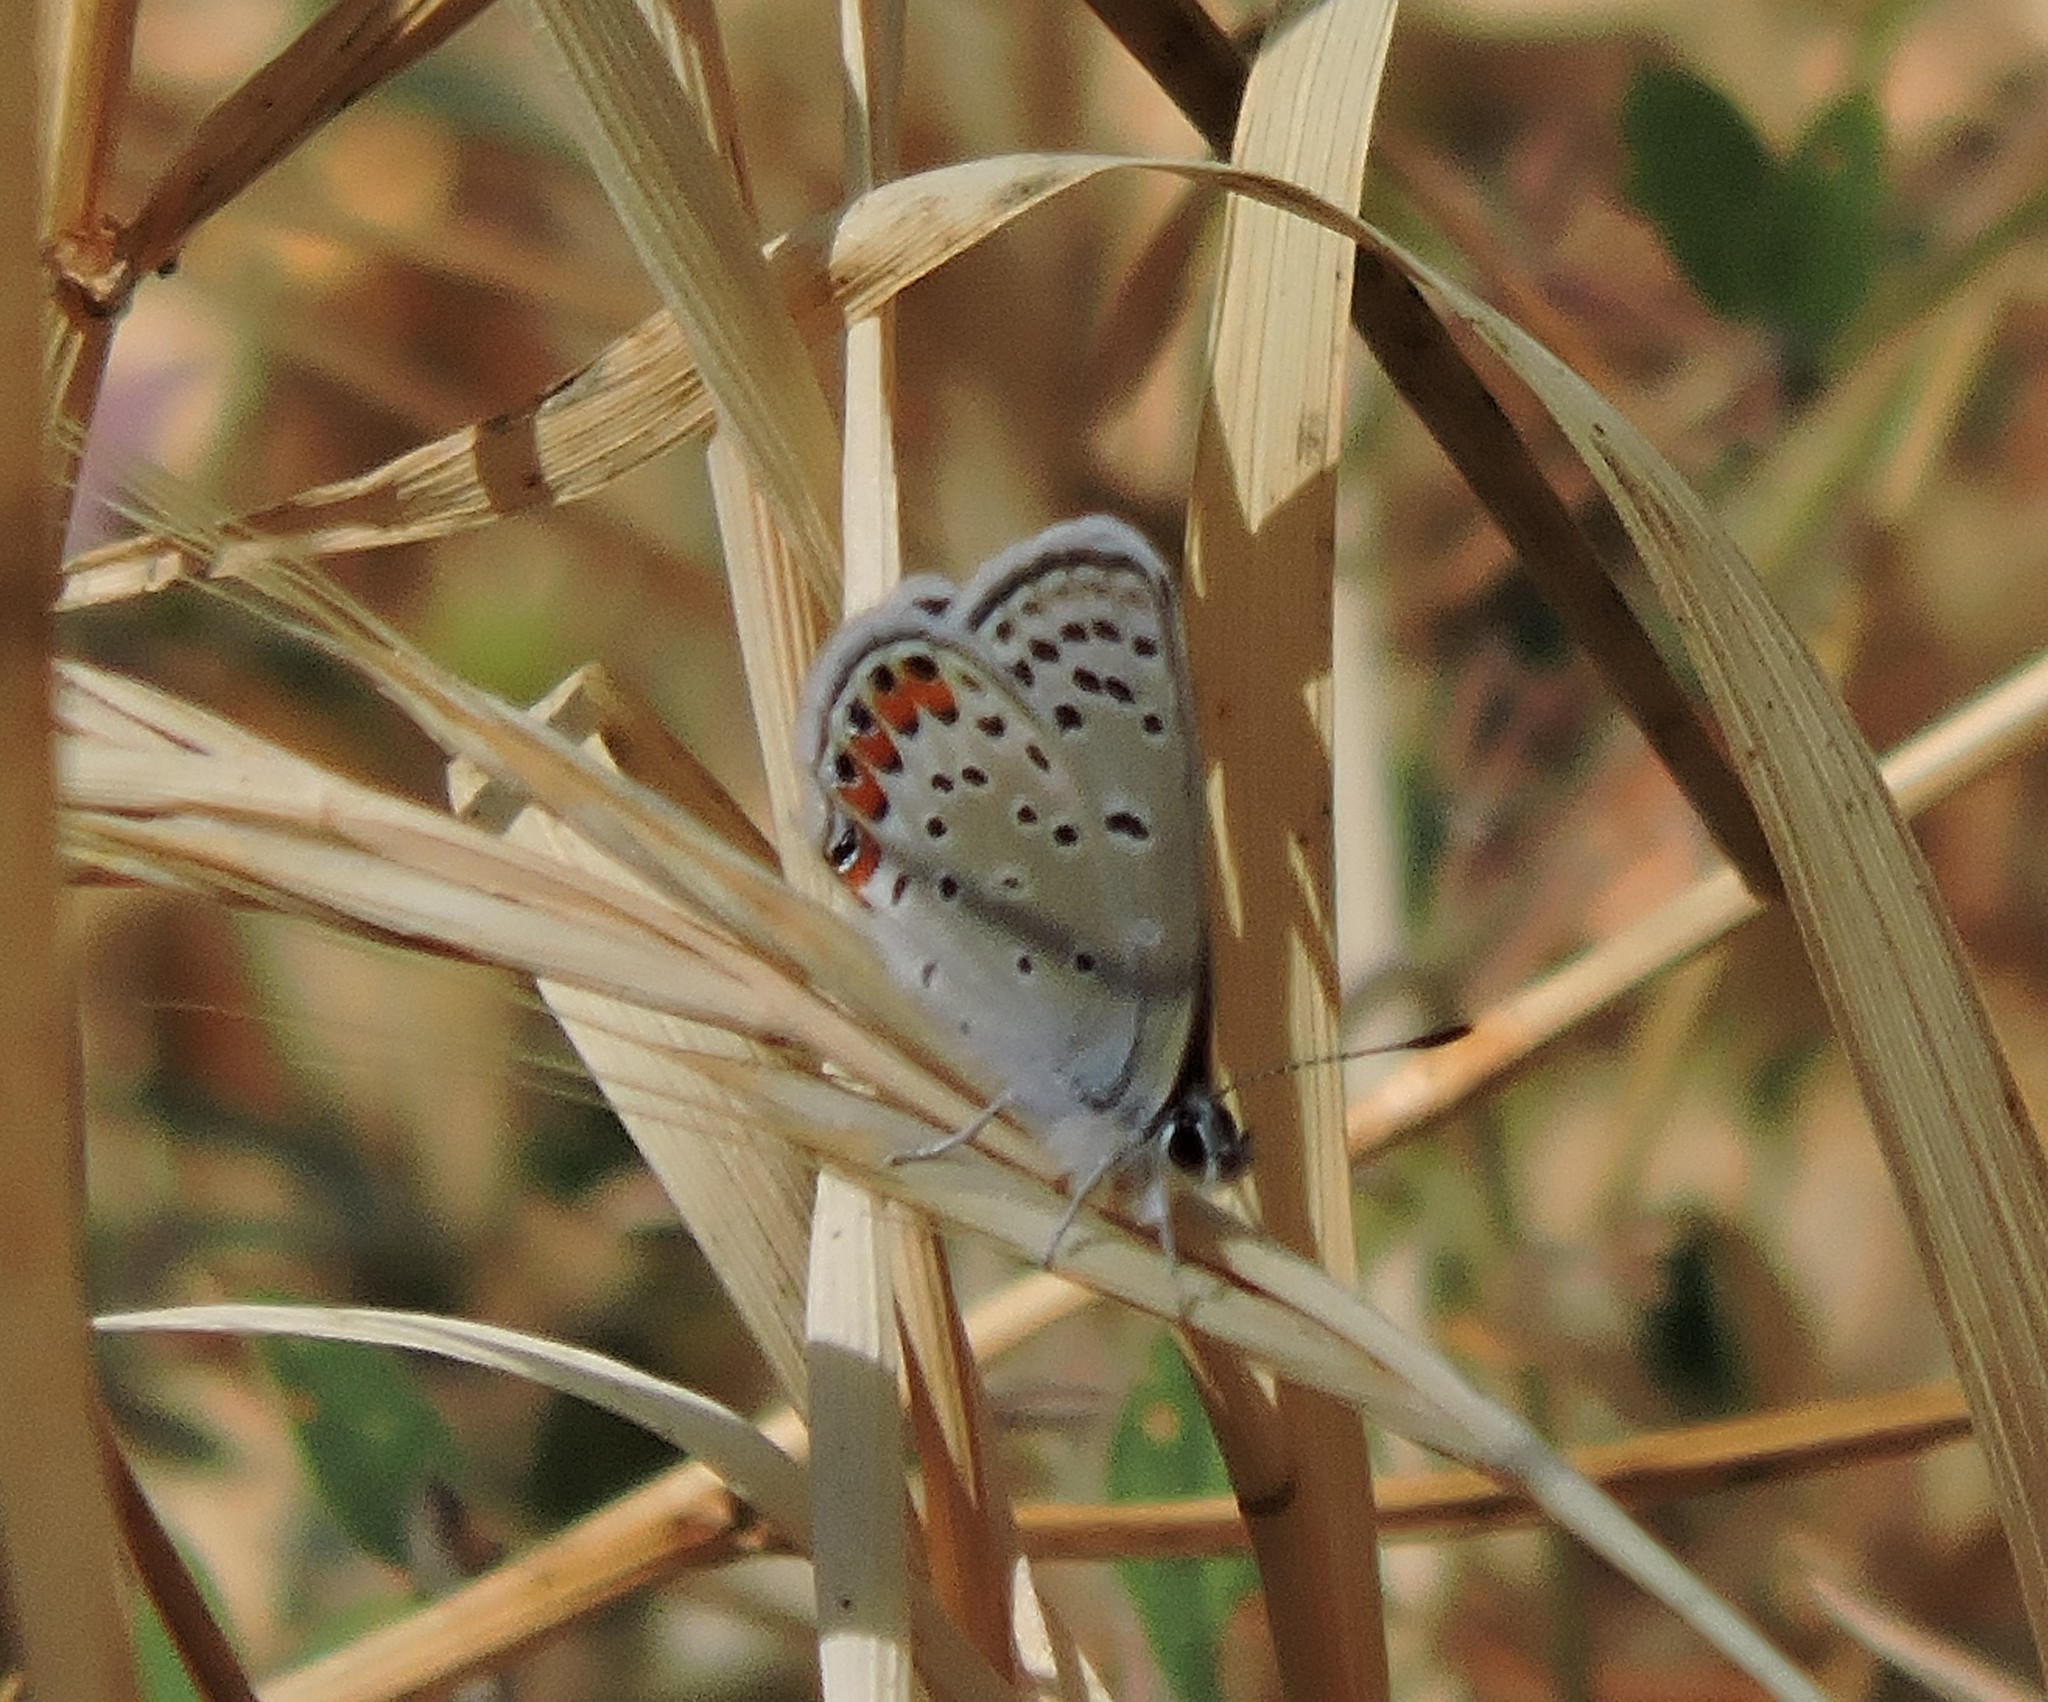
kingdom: Animalia
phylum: Arthropoda
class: Insecta
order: Lepidoptera
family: Lycaenidae
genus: Icaricia
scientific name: Icaricia acmon
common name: Acmon blue
